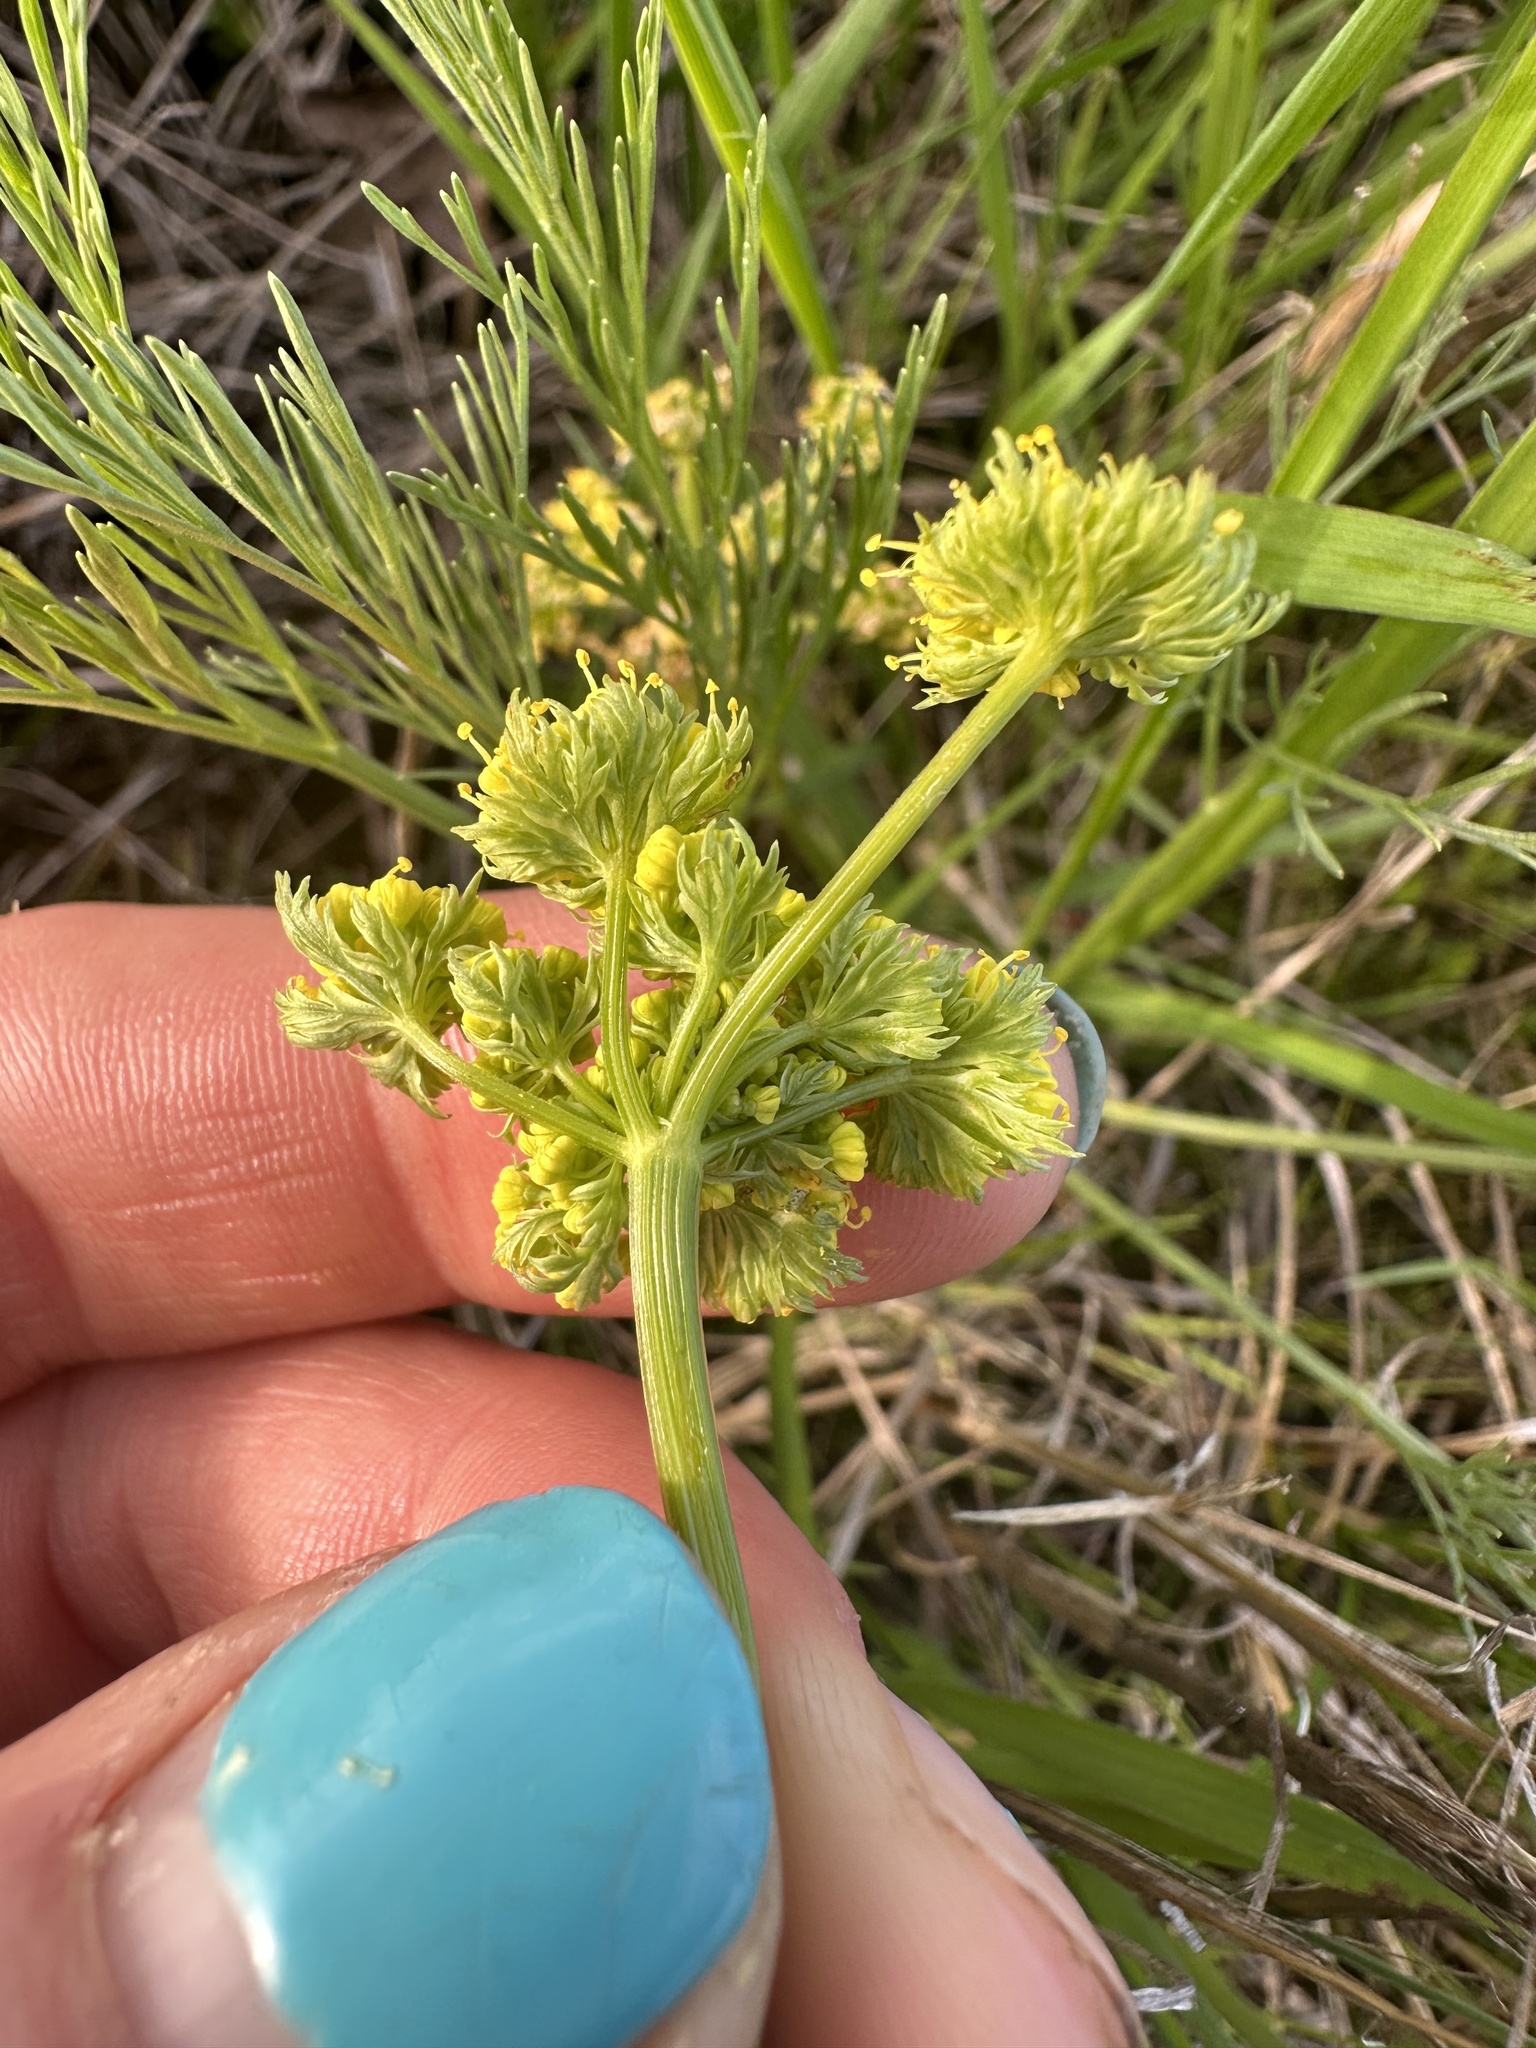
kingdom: Plantae
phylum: Tracheophyta
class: Magnoliopsida
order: Apiales
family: Apiaceae
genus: Lomatium
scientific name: Lomatium bradshawii
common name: Bradshaw's desert-parsley
